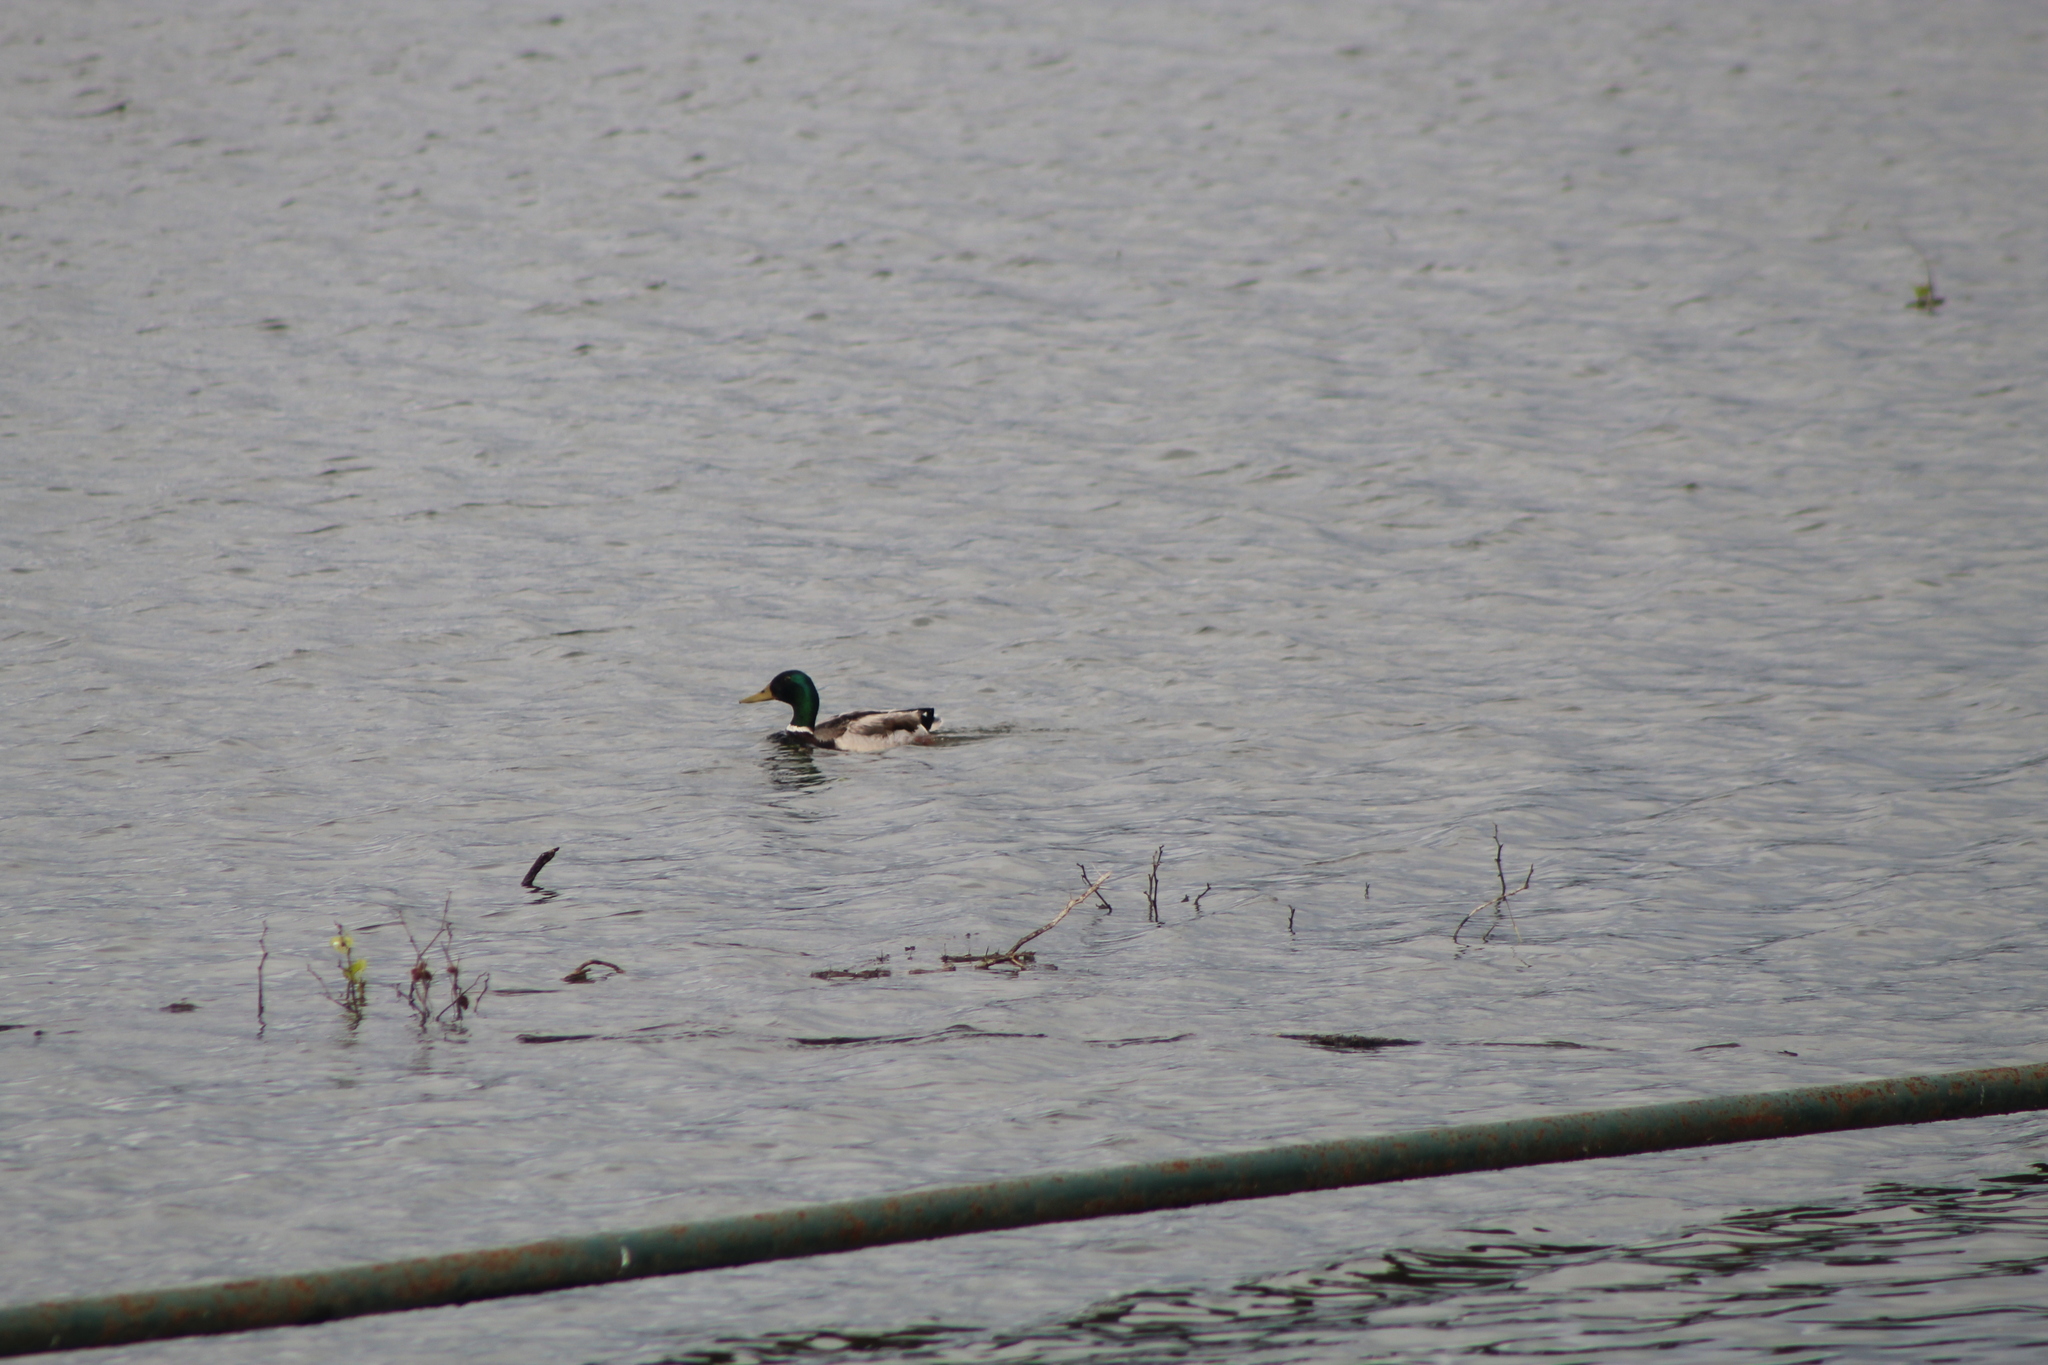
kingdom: Animalia
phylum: Chordata
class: Aves
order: Anseriformes
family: Anatidae
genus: Anas
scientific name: Anas platyrhynchos
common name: Mallard
